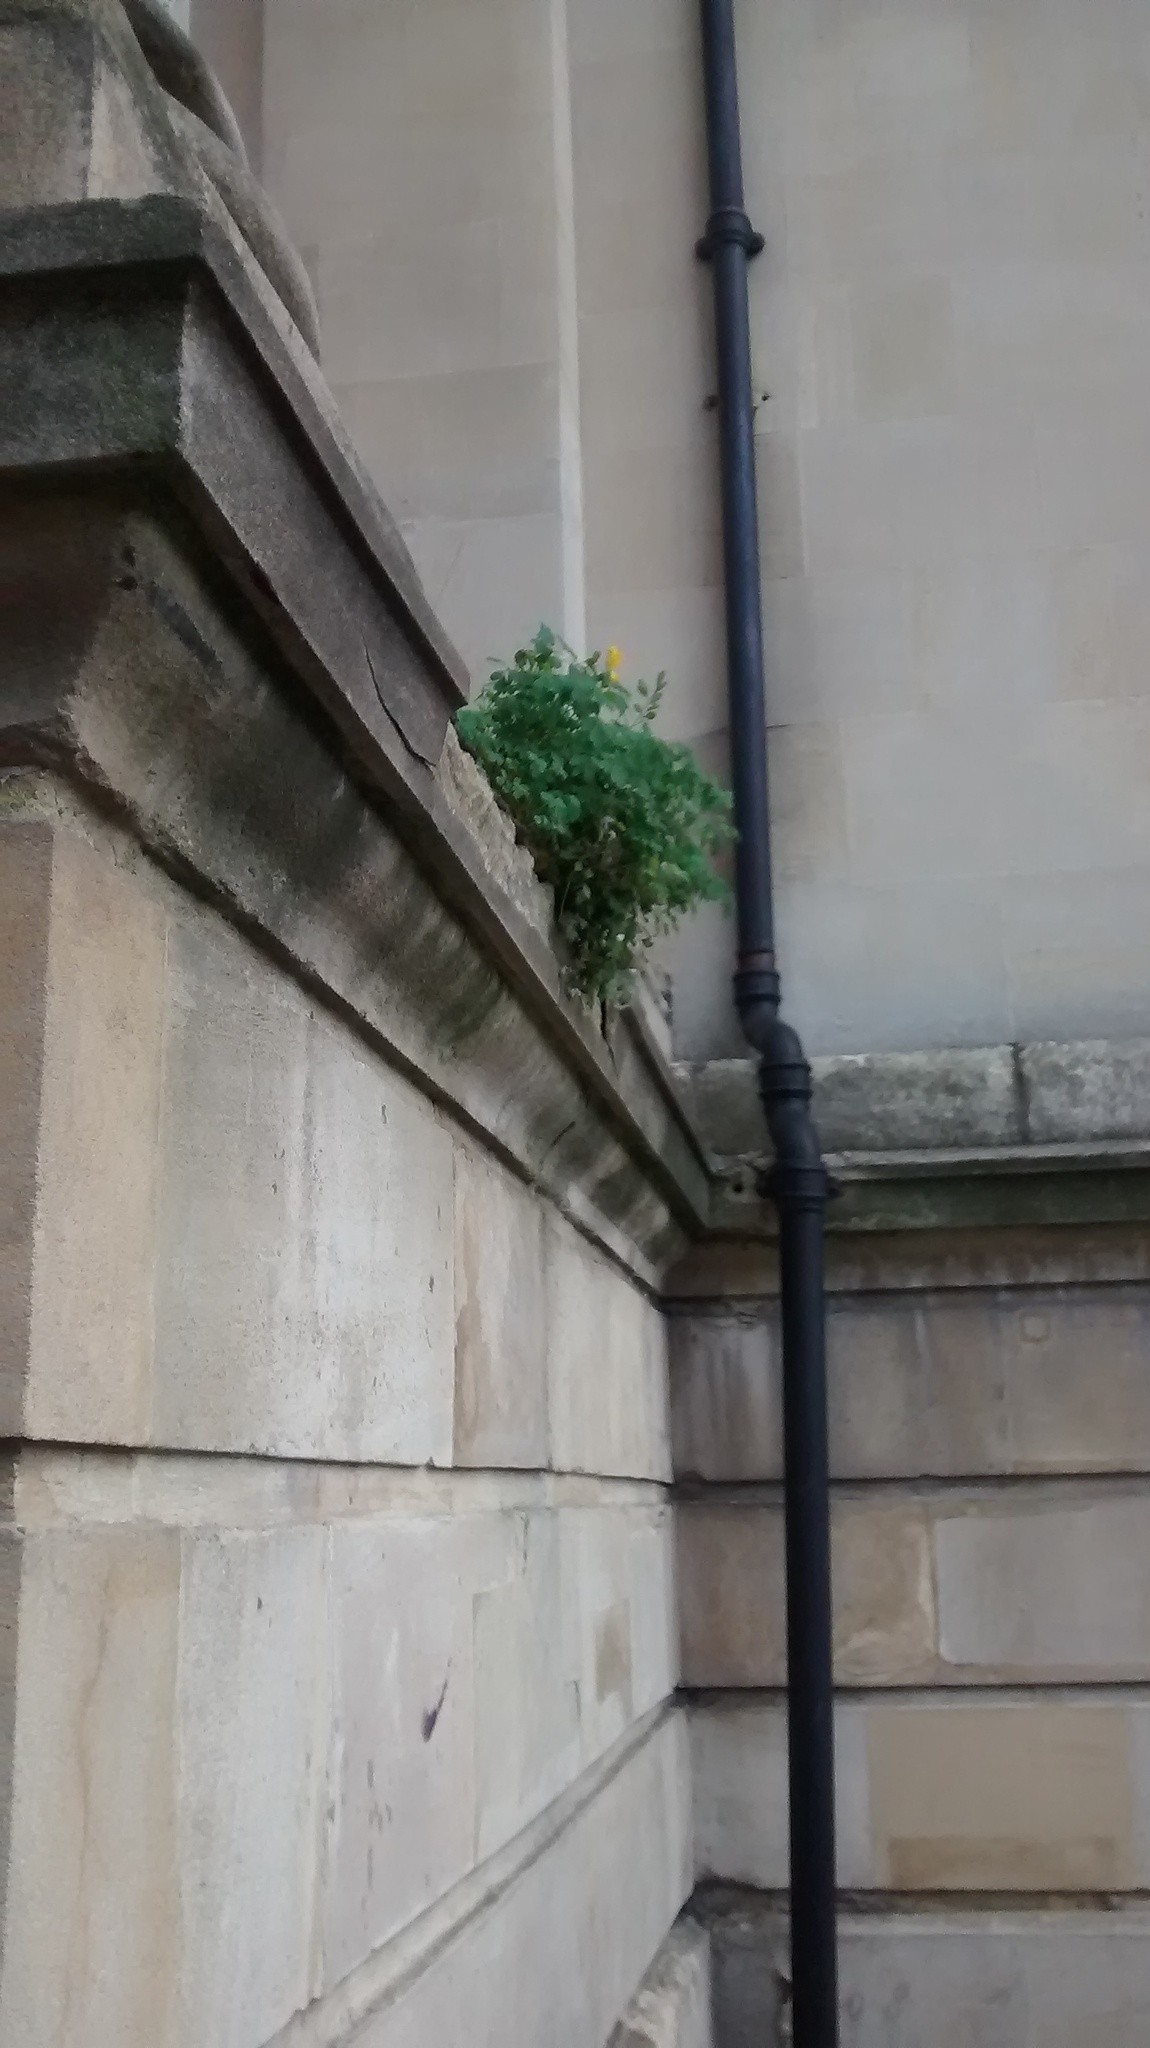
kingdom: Plantae
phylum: Tracheophyta
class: Magnoliopsida
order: Ranunculales
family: Papaveraceae
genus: Pseudofumaria
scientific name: Pseudofumaria lutea
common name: Yellow corydalis
